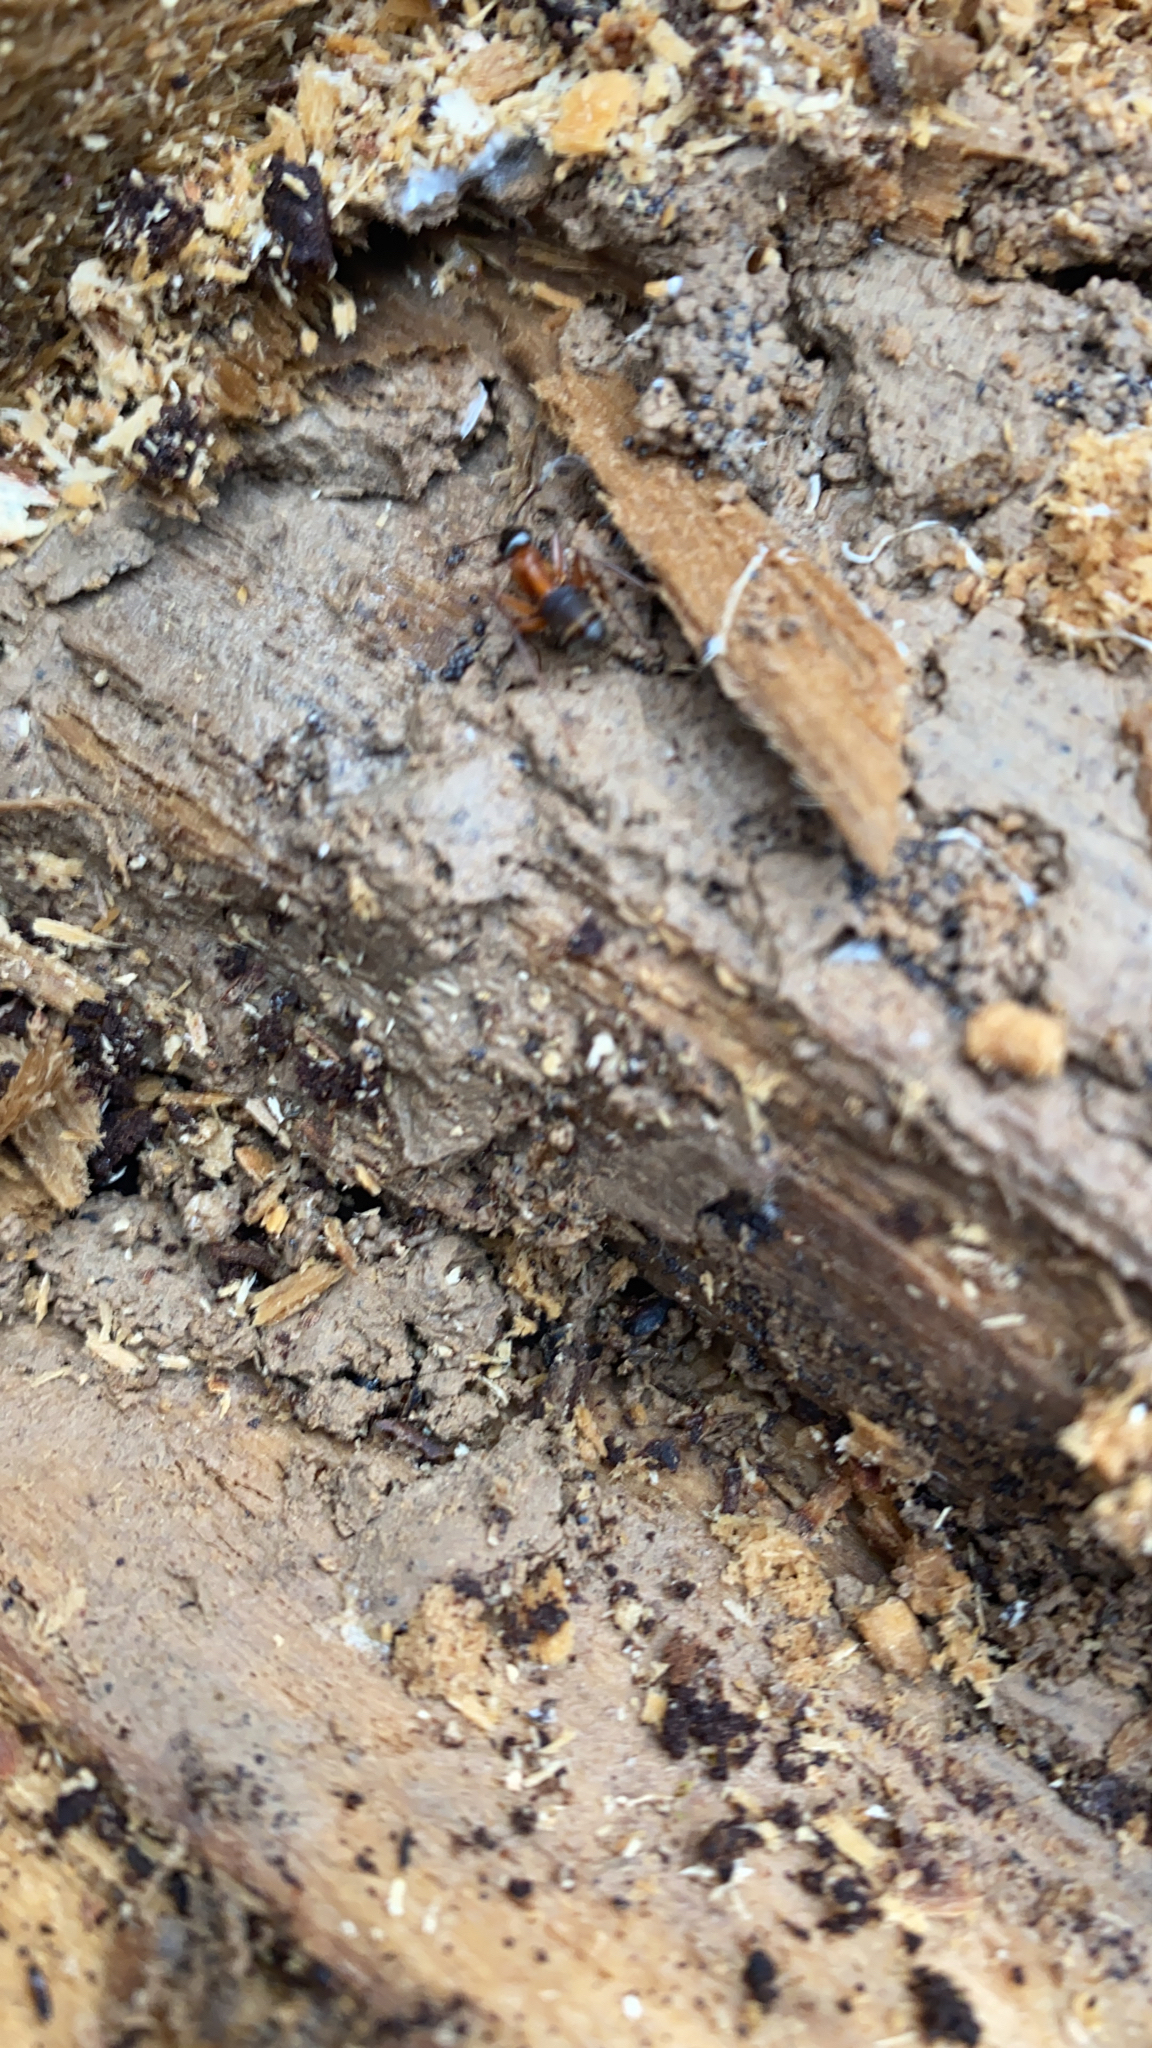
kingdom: Animalia
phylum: Arthropoda
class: Insecta
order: Hymenoptera
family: Formicidae
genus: Camponotus
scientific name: Camponotus chromaiodes
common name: Red carpenter ant
